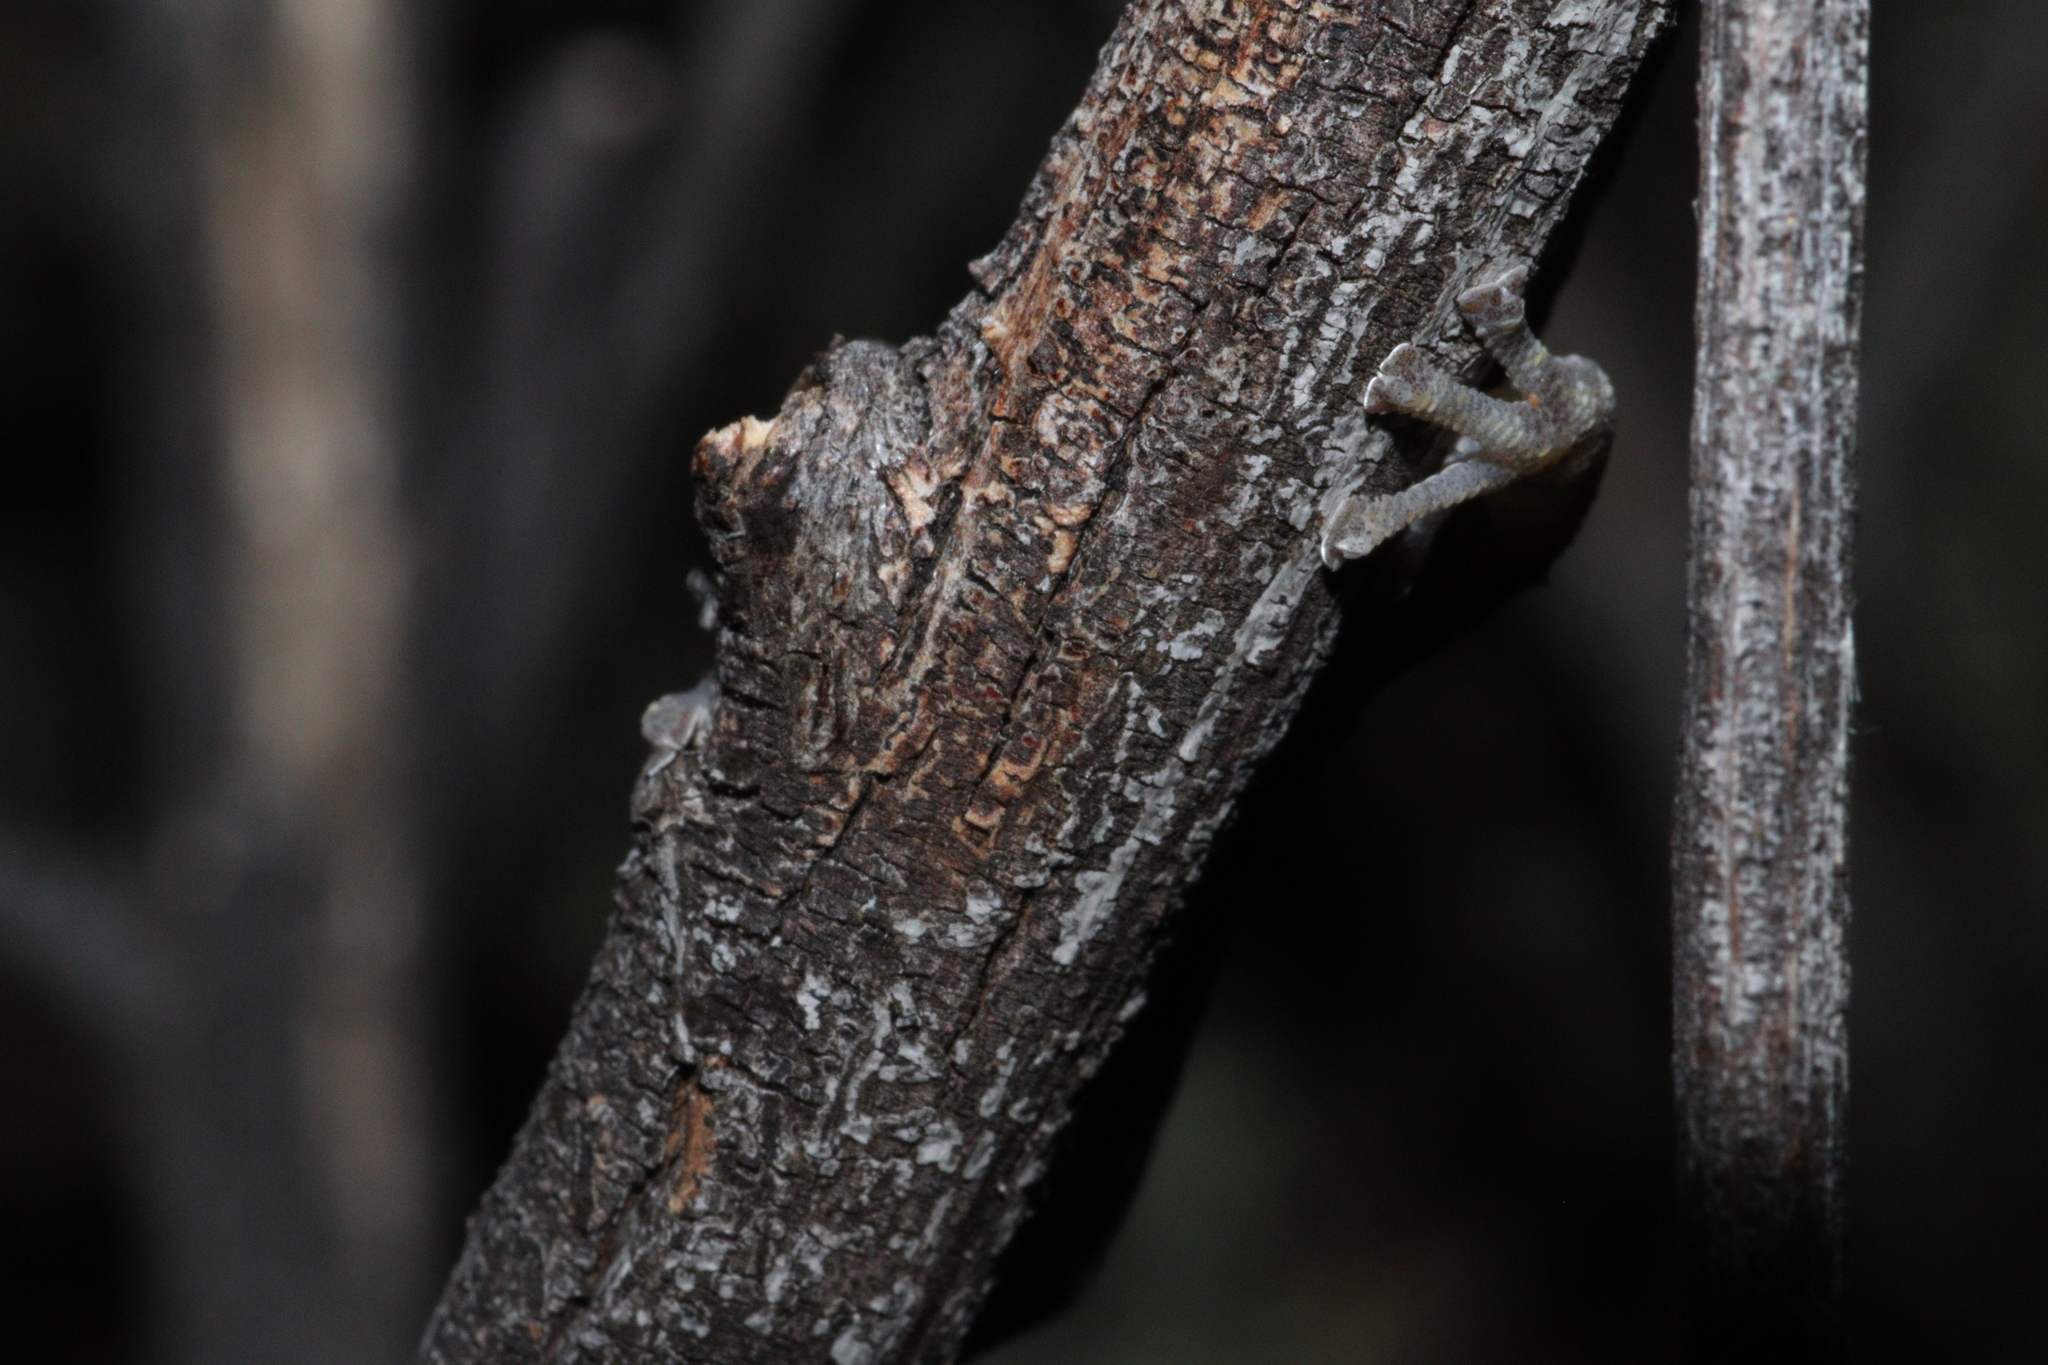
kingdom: Animalia
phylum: Chordata
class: Squamata
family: Gekkonidae
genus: Christinus
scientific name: Christinus marmoratus
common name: Marbled gecko
